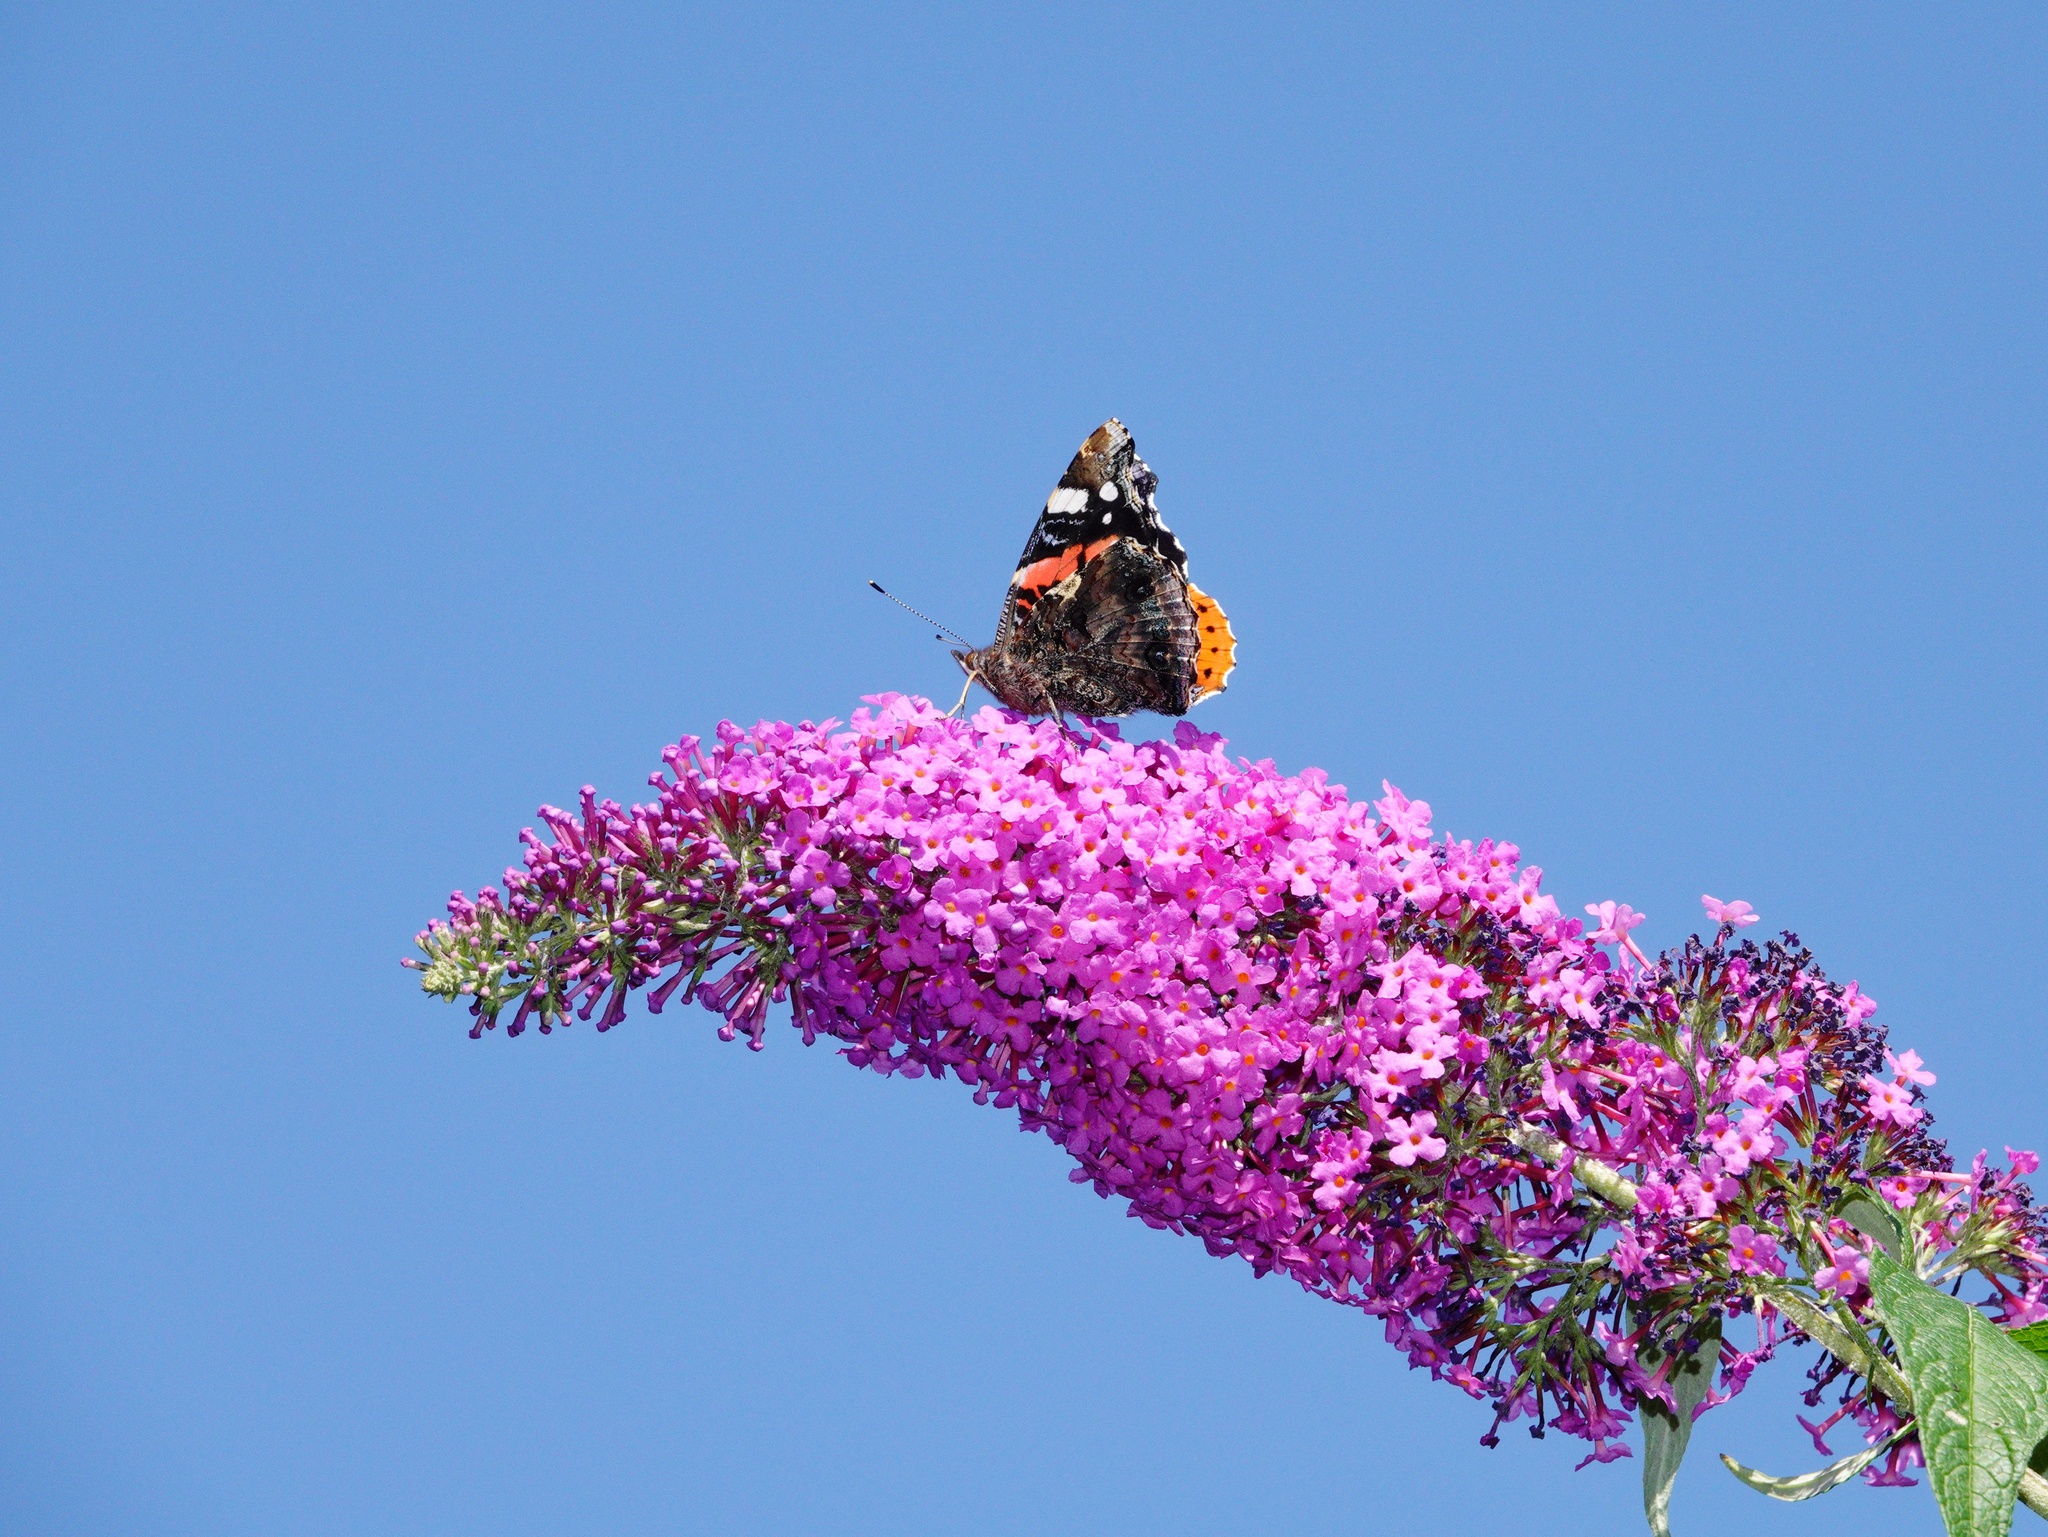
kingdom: Animalia
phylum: Arthropoda
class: Insecta
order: Lepidoptera
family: Nymphalidae
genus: Vanessa
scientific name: Vanessa atalanta
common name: Red admiral
